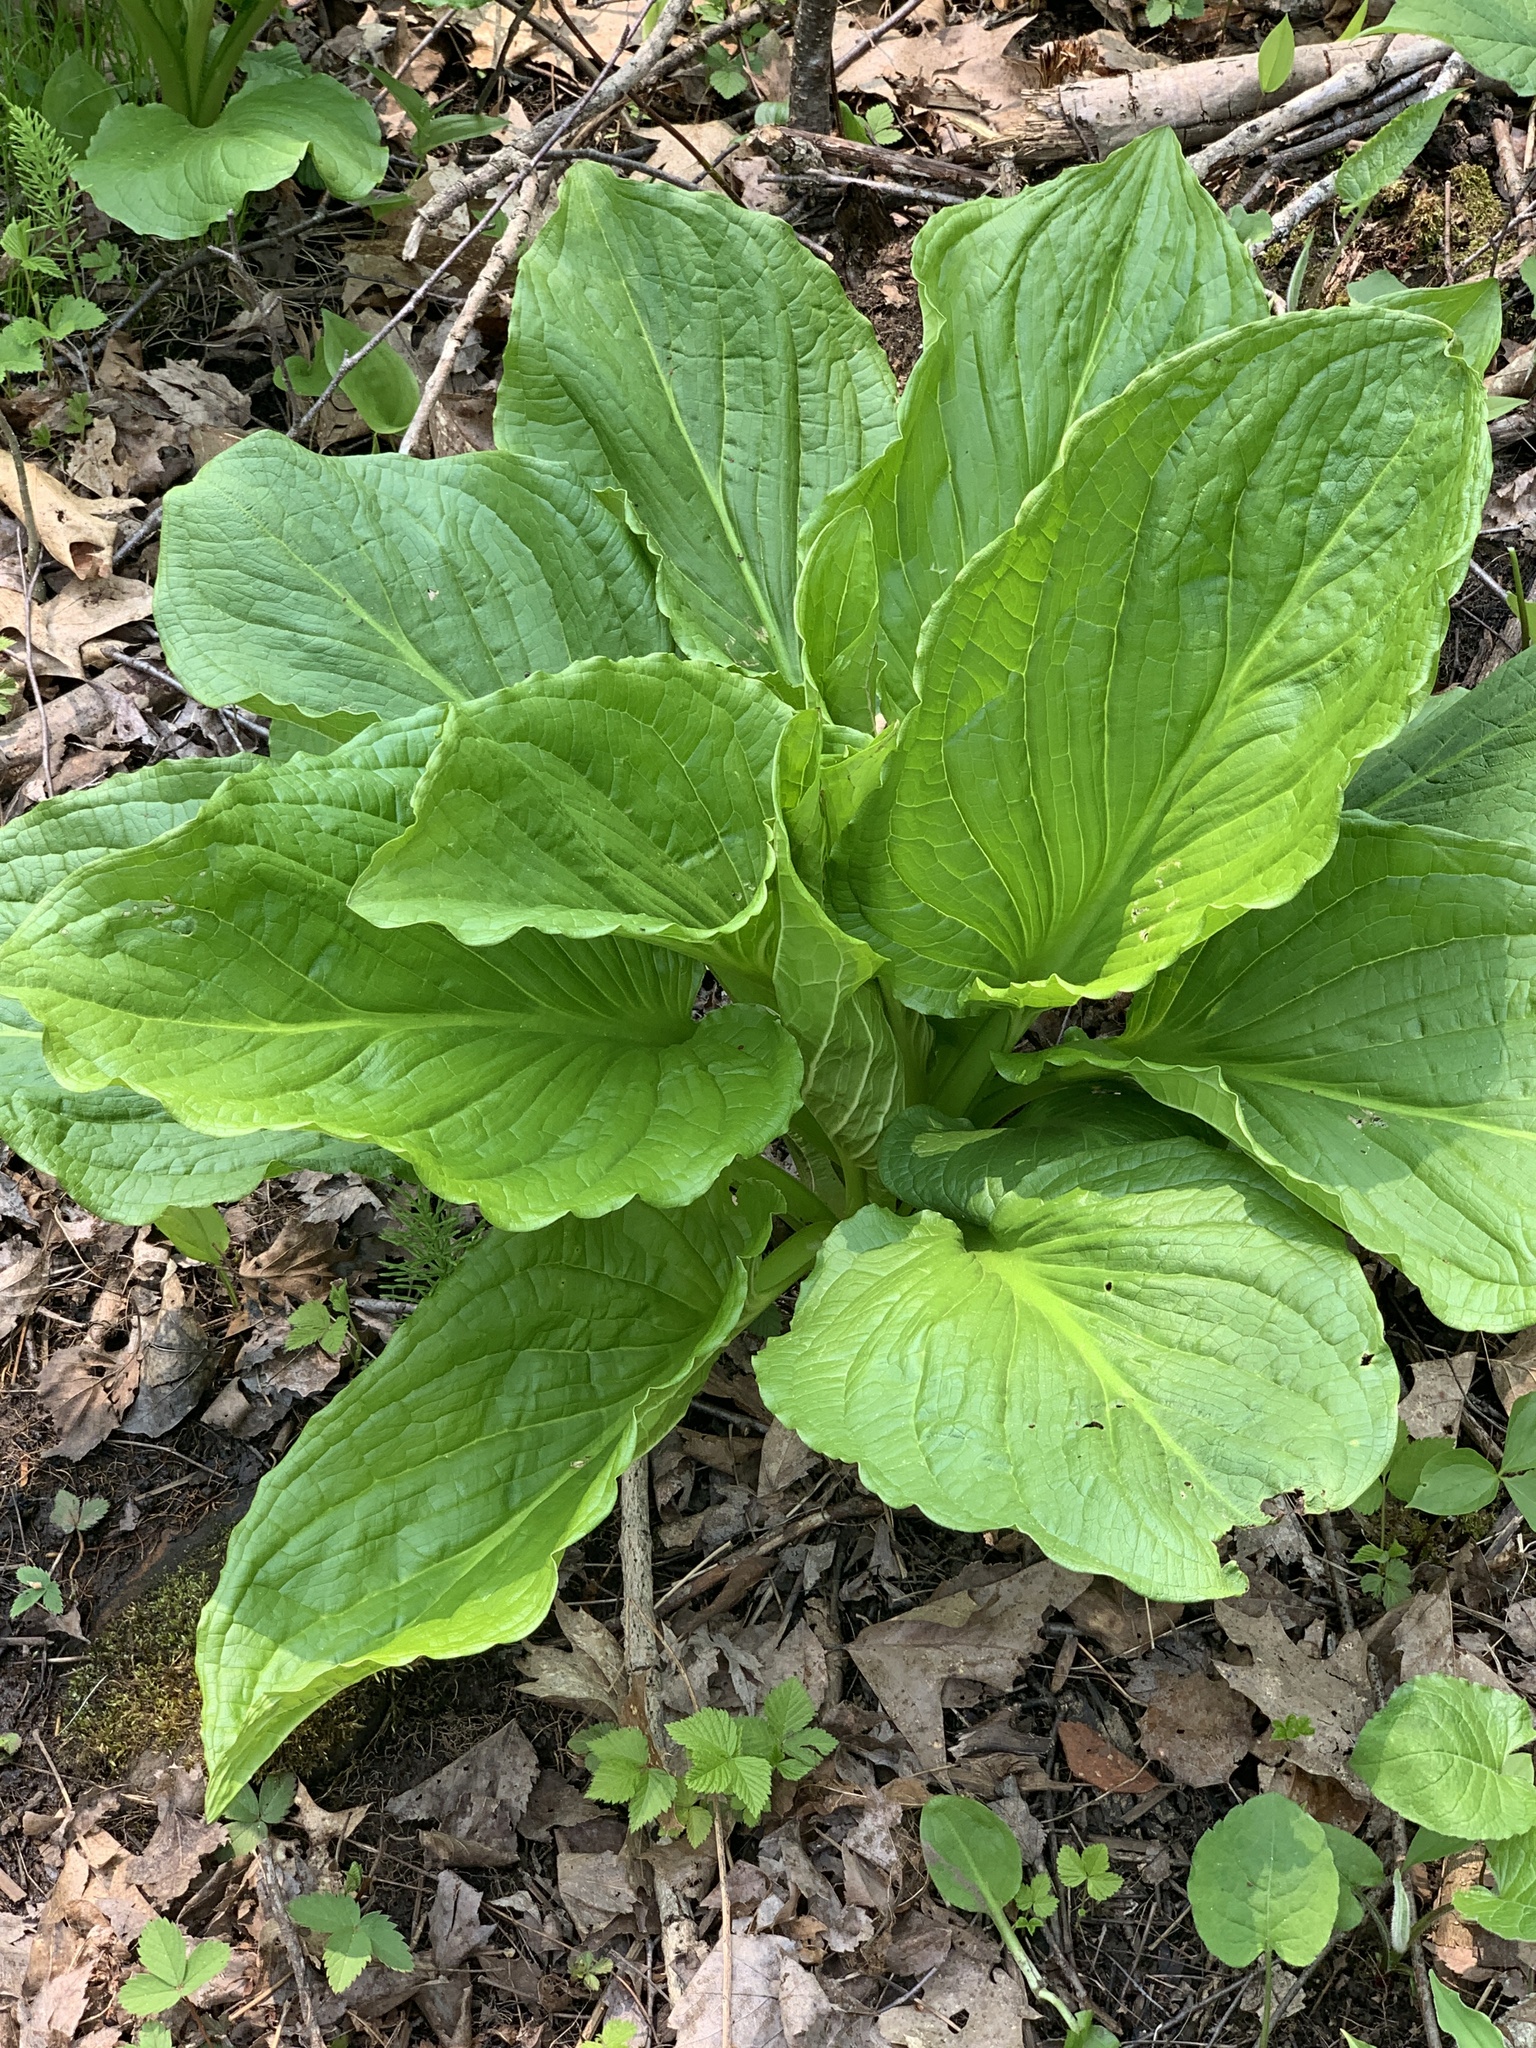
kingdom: Plantae
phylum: Tracheophyta
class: Liliopsida
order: Alismatales
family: Araceae
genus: Symplocarpus
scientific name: Symplocarpus foetidus
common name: Eastern skunk cabbage
